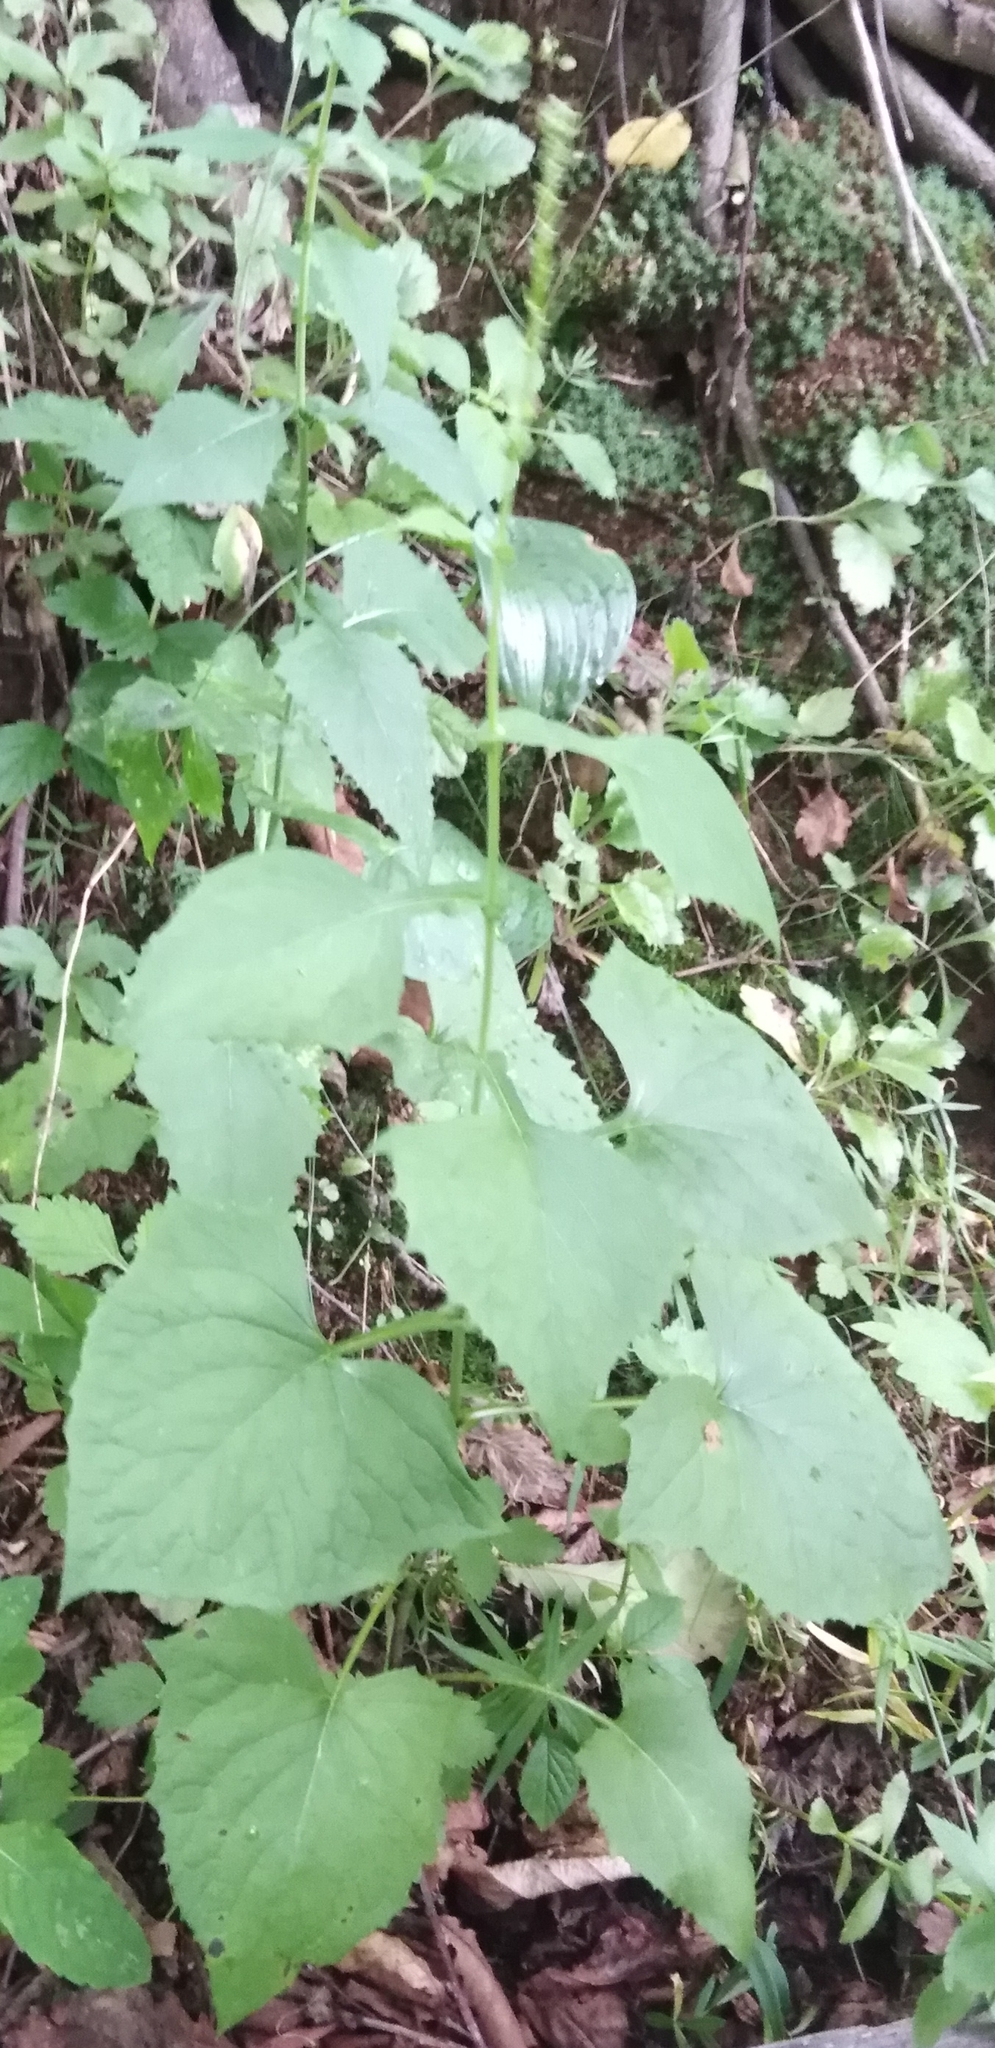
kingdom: Plantae
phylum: Tracheophyta
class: Magnoliopsida
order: Asterales
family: Asteraceae
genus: Parasenecio
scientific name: Parasenecio auriculata
